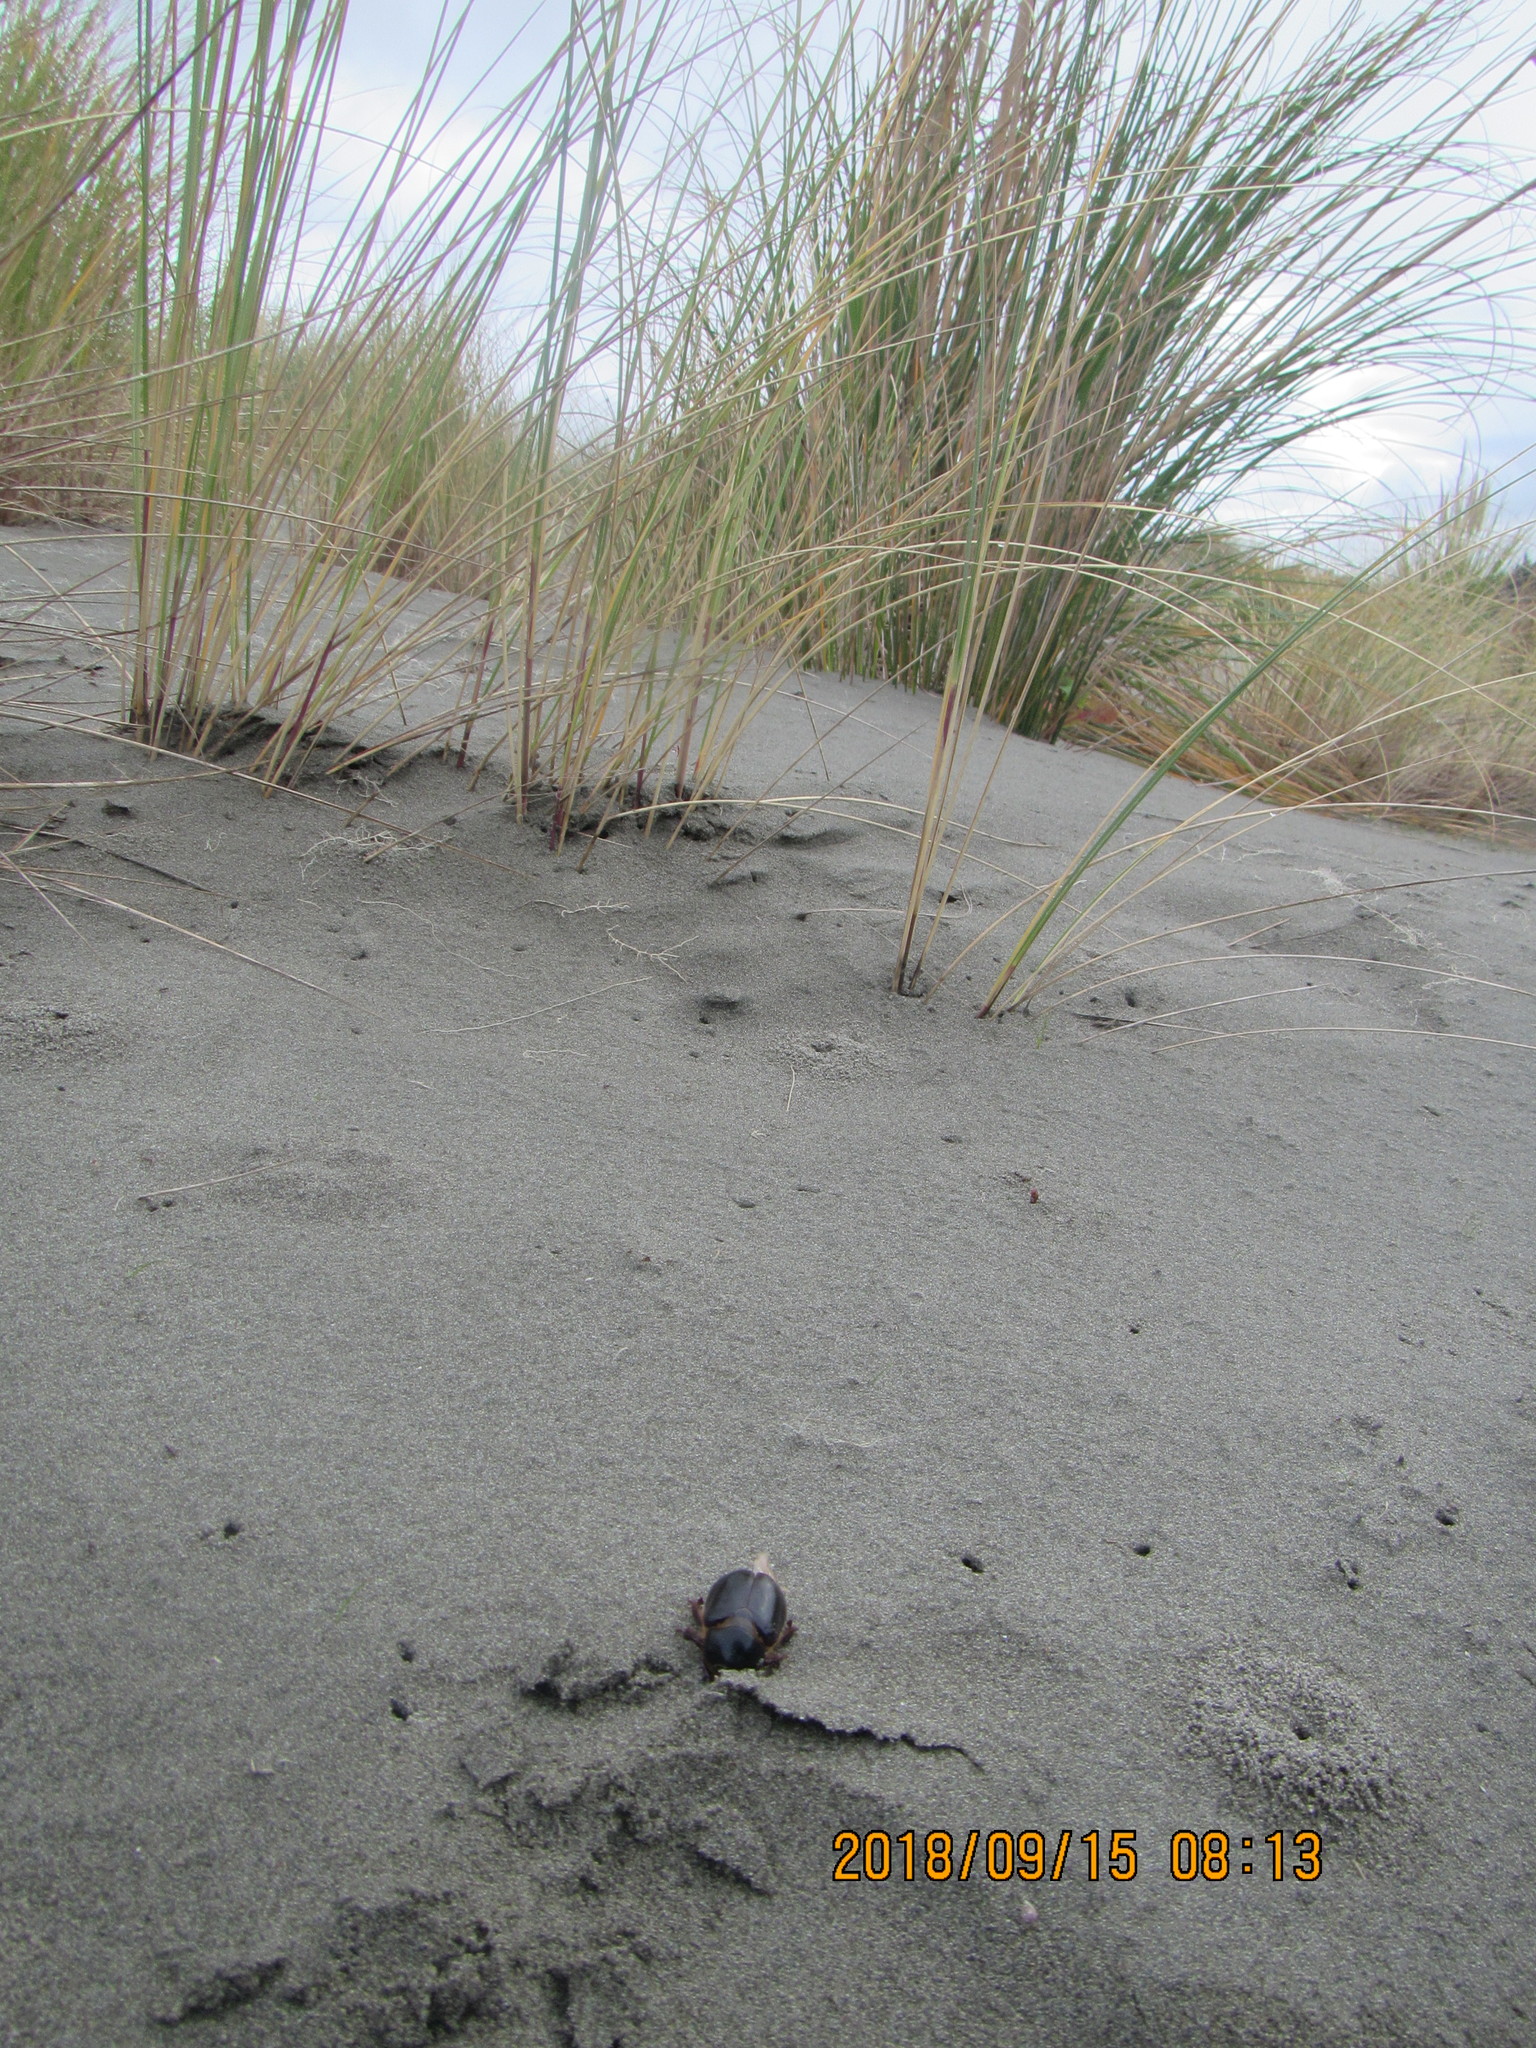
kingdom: Animalia
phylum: Arthropoda
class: Insecta
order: Coleoptera
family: Scarabaeidae
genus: Pericoptus
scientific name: Pericoptus truncatus
